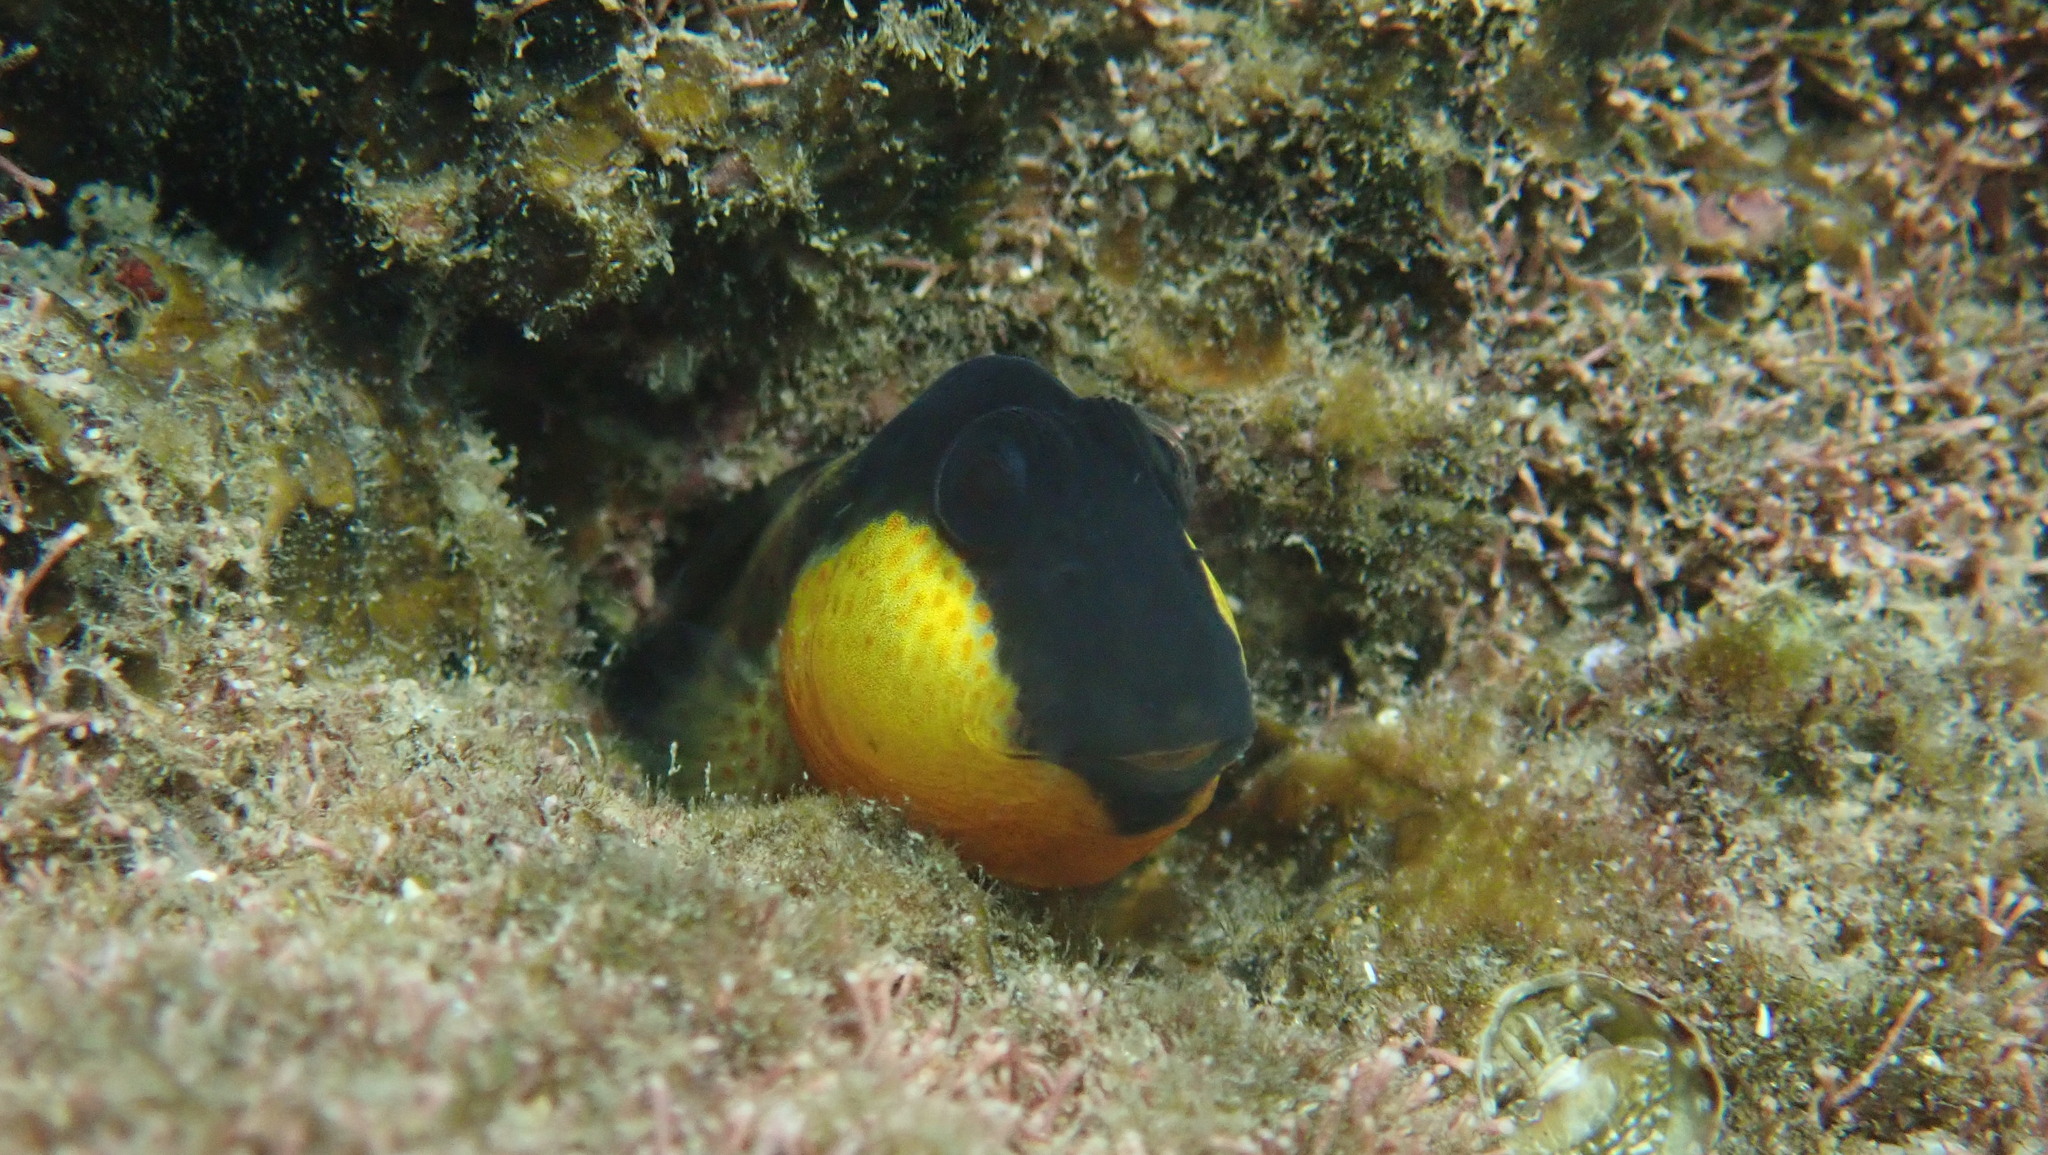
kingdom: Animalia
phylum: Chordata
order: Perciformes
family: Blenniidae
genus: Microlipophrys
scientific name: Microlipophrys canevae
